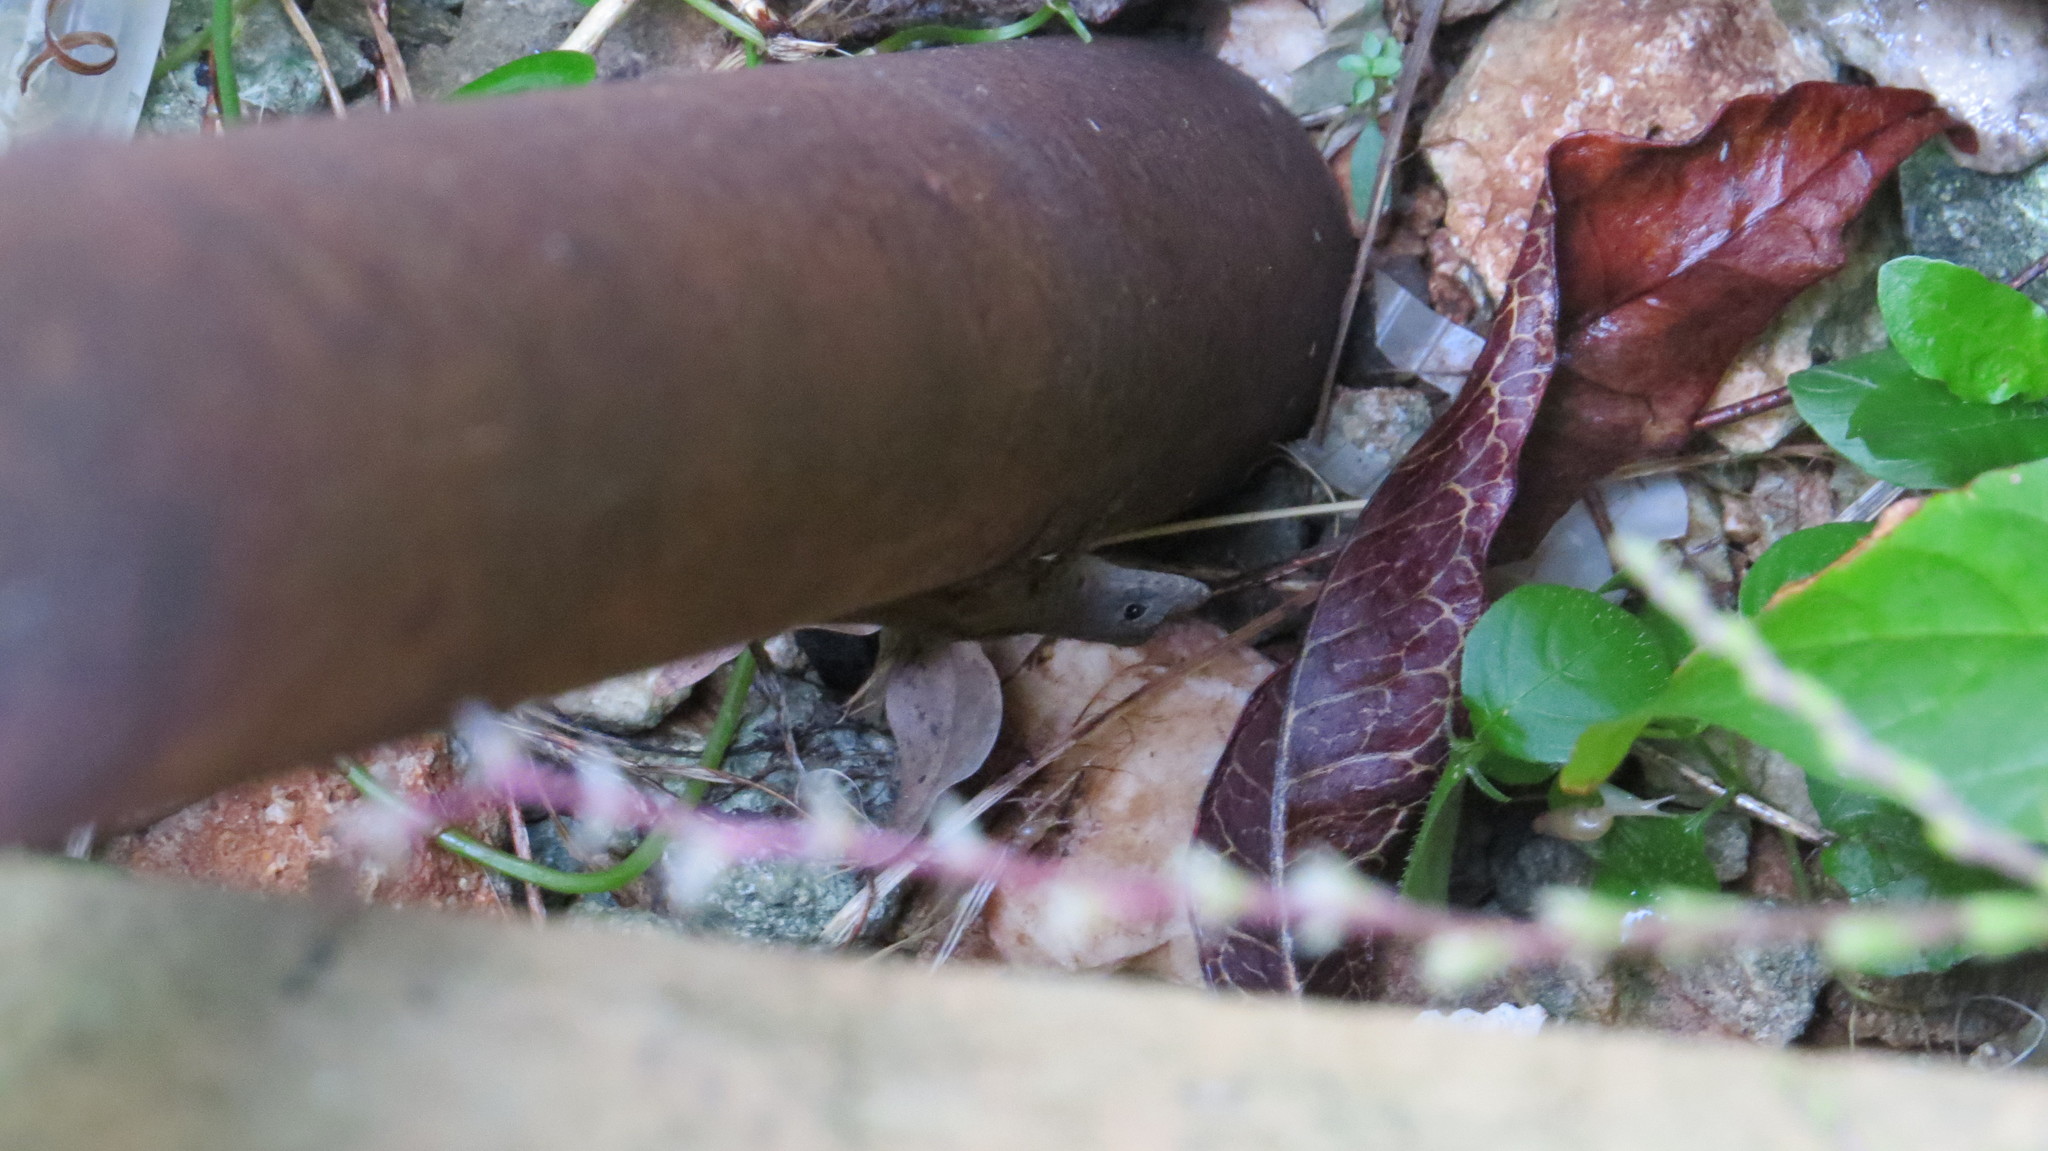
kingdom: Animalia
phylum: Chordata
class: Squamata
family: Dactyloidae
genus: Anolis
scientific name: Anolis sagrei
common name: Brown anole
